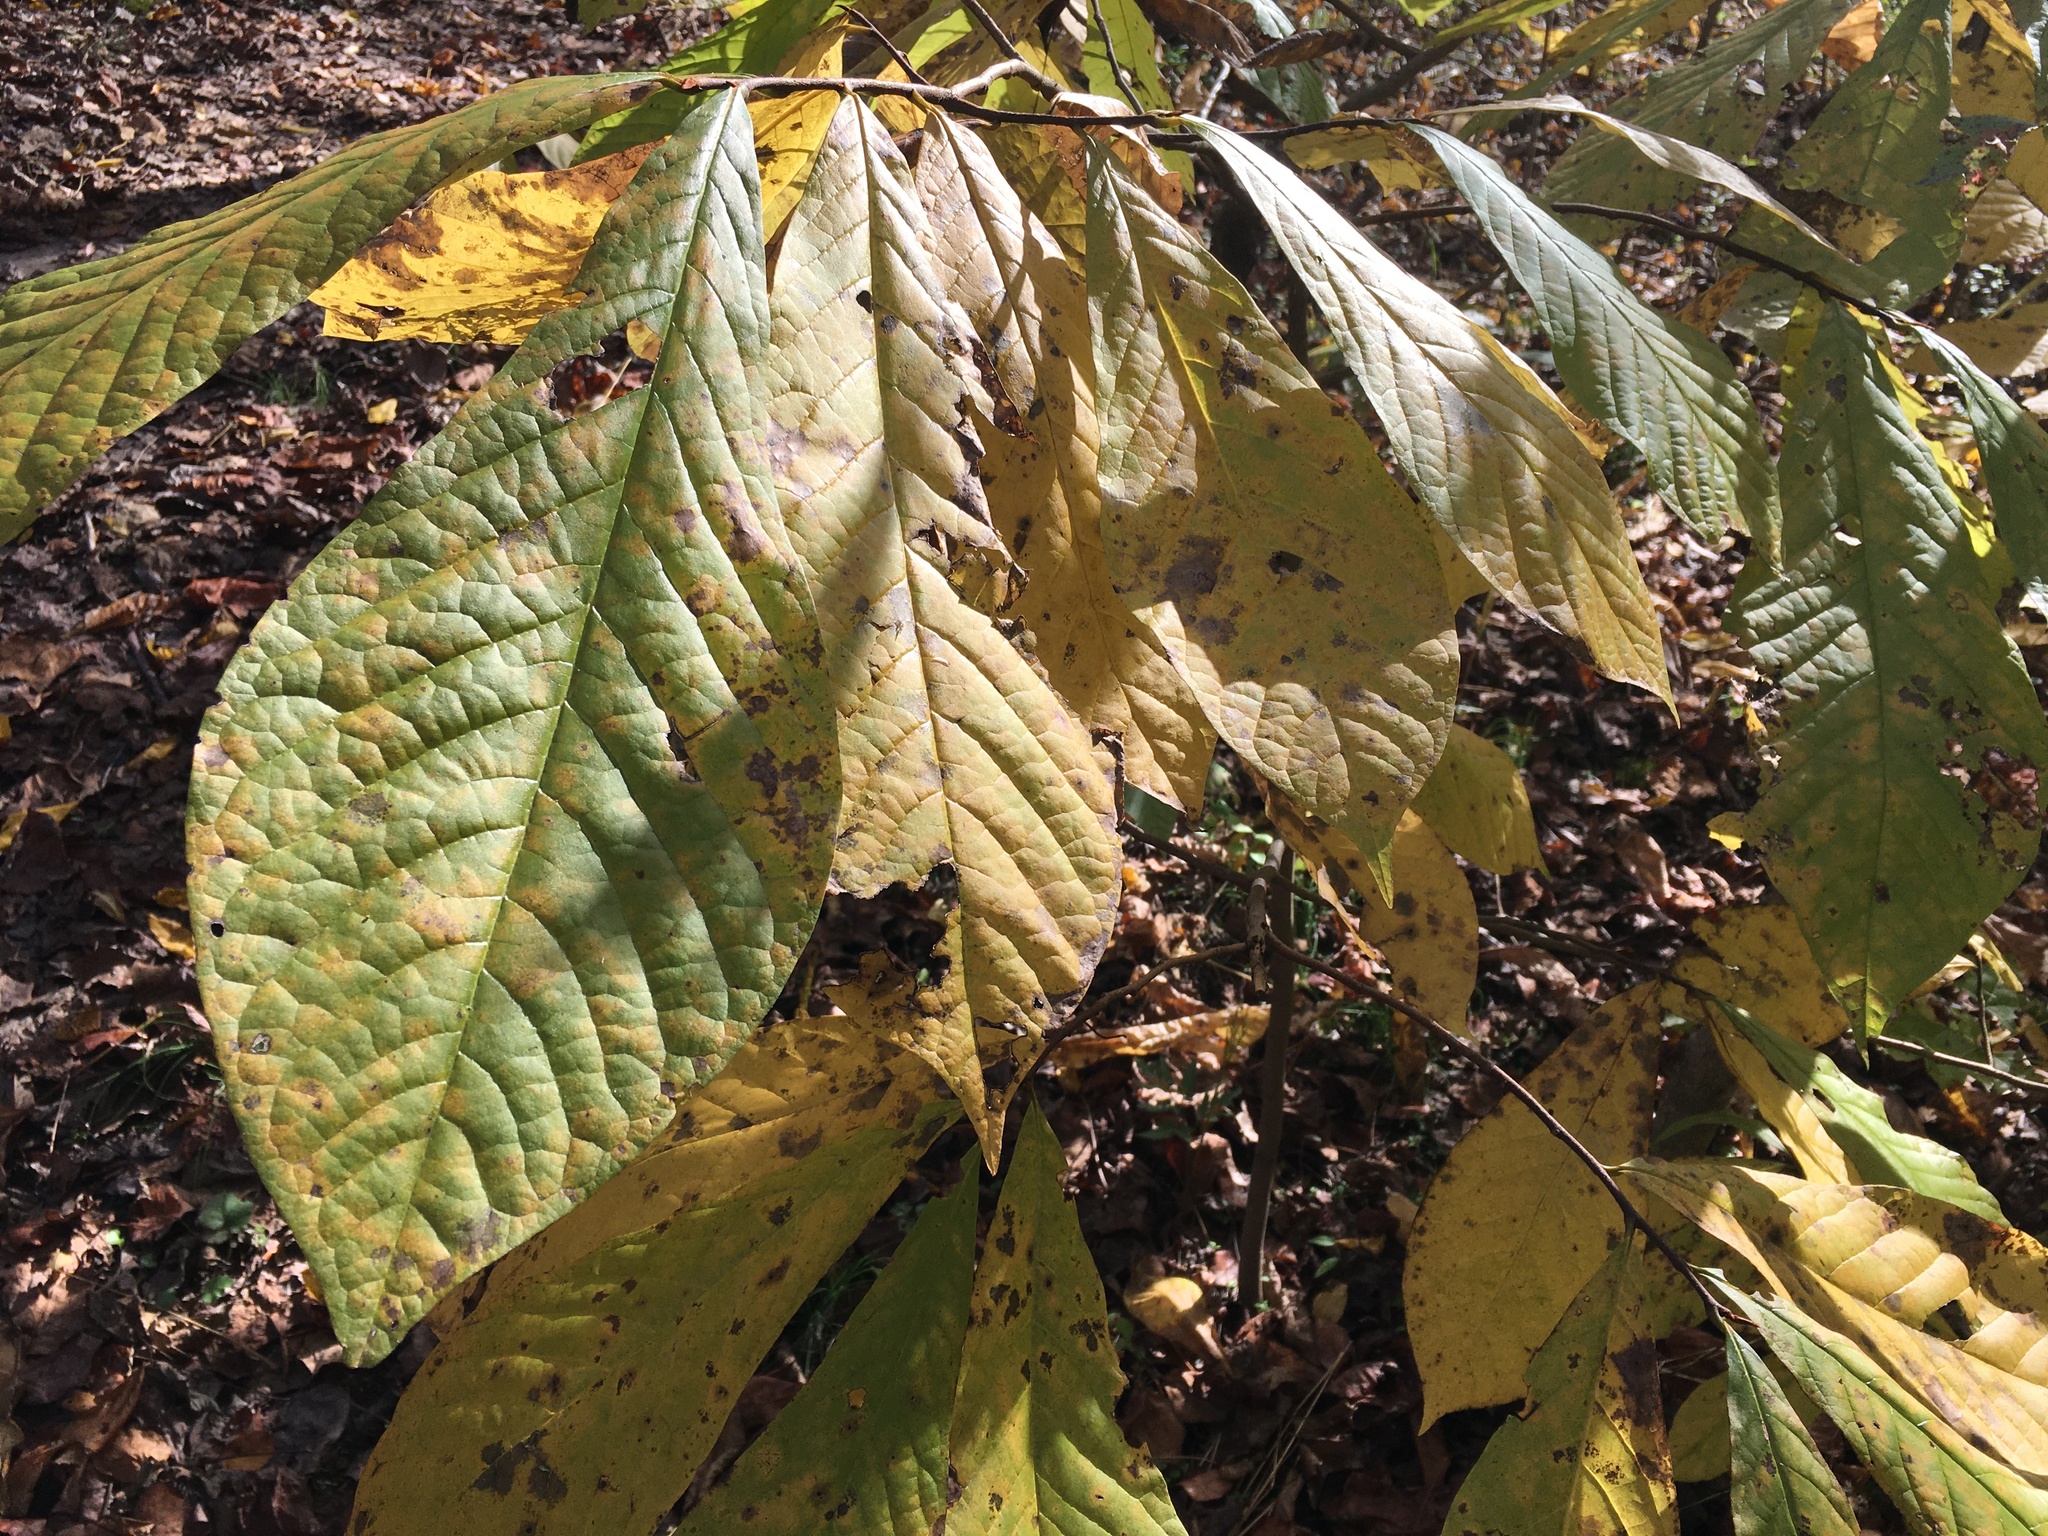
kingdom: Plantae
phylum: Tracheophyta
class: Magnoliopsida
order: Magnoliales
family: Annonaceae
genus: Asimina
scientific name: Asimina triloba
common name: Dog-banana
